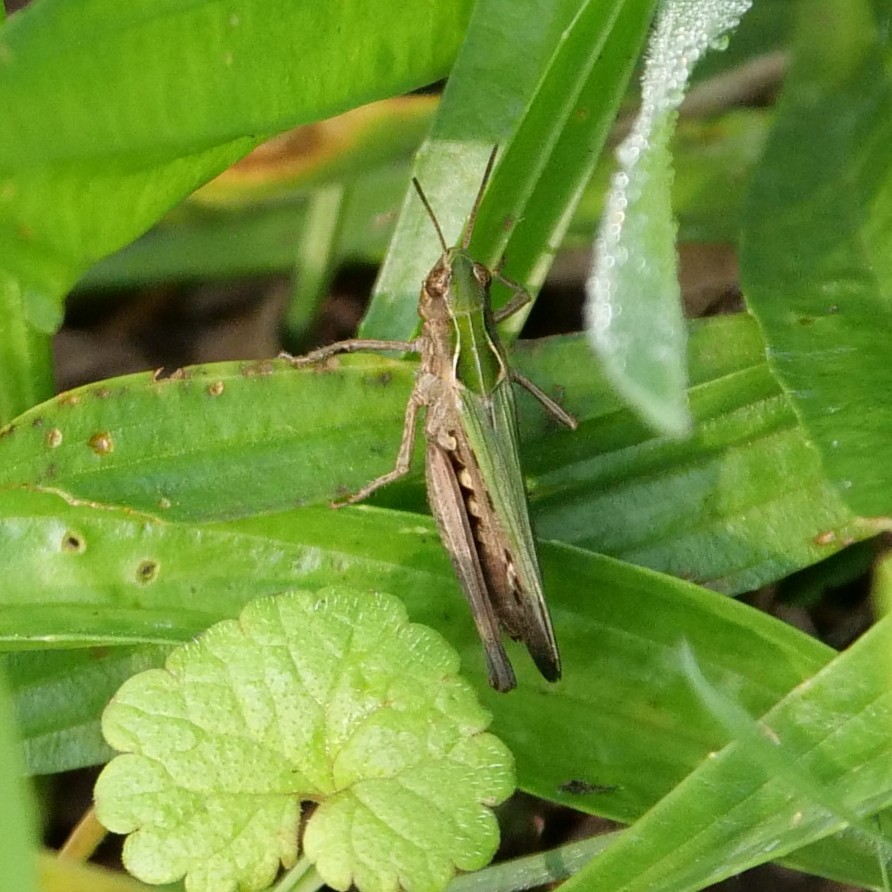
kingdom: Animalia
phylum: Arthropoda
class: Insecta
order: Orthoptera
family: Acrididae
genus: Omocestus
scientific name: Omocestus rufipes
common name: Woodland grasshopper
